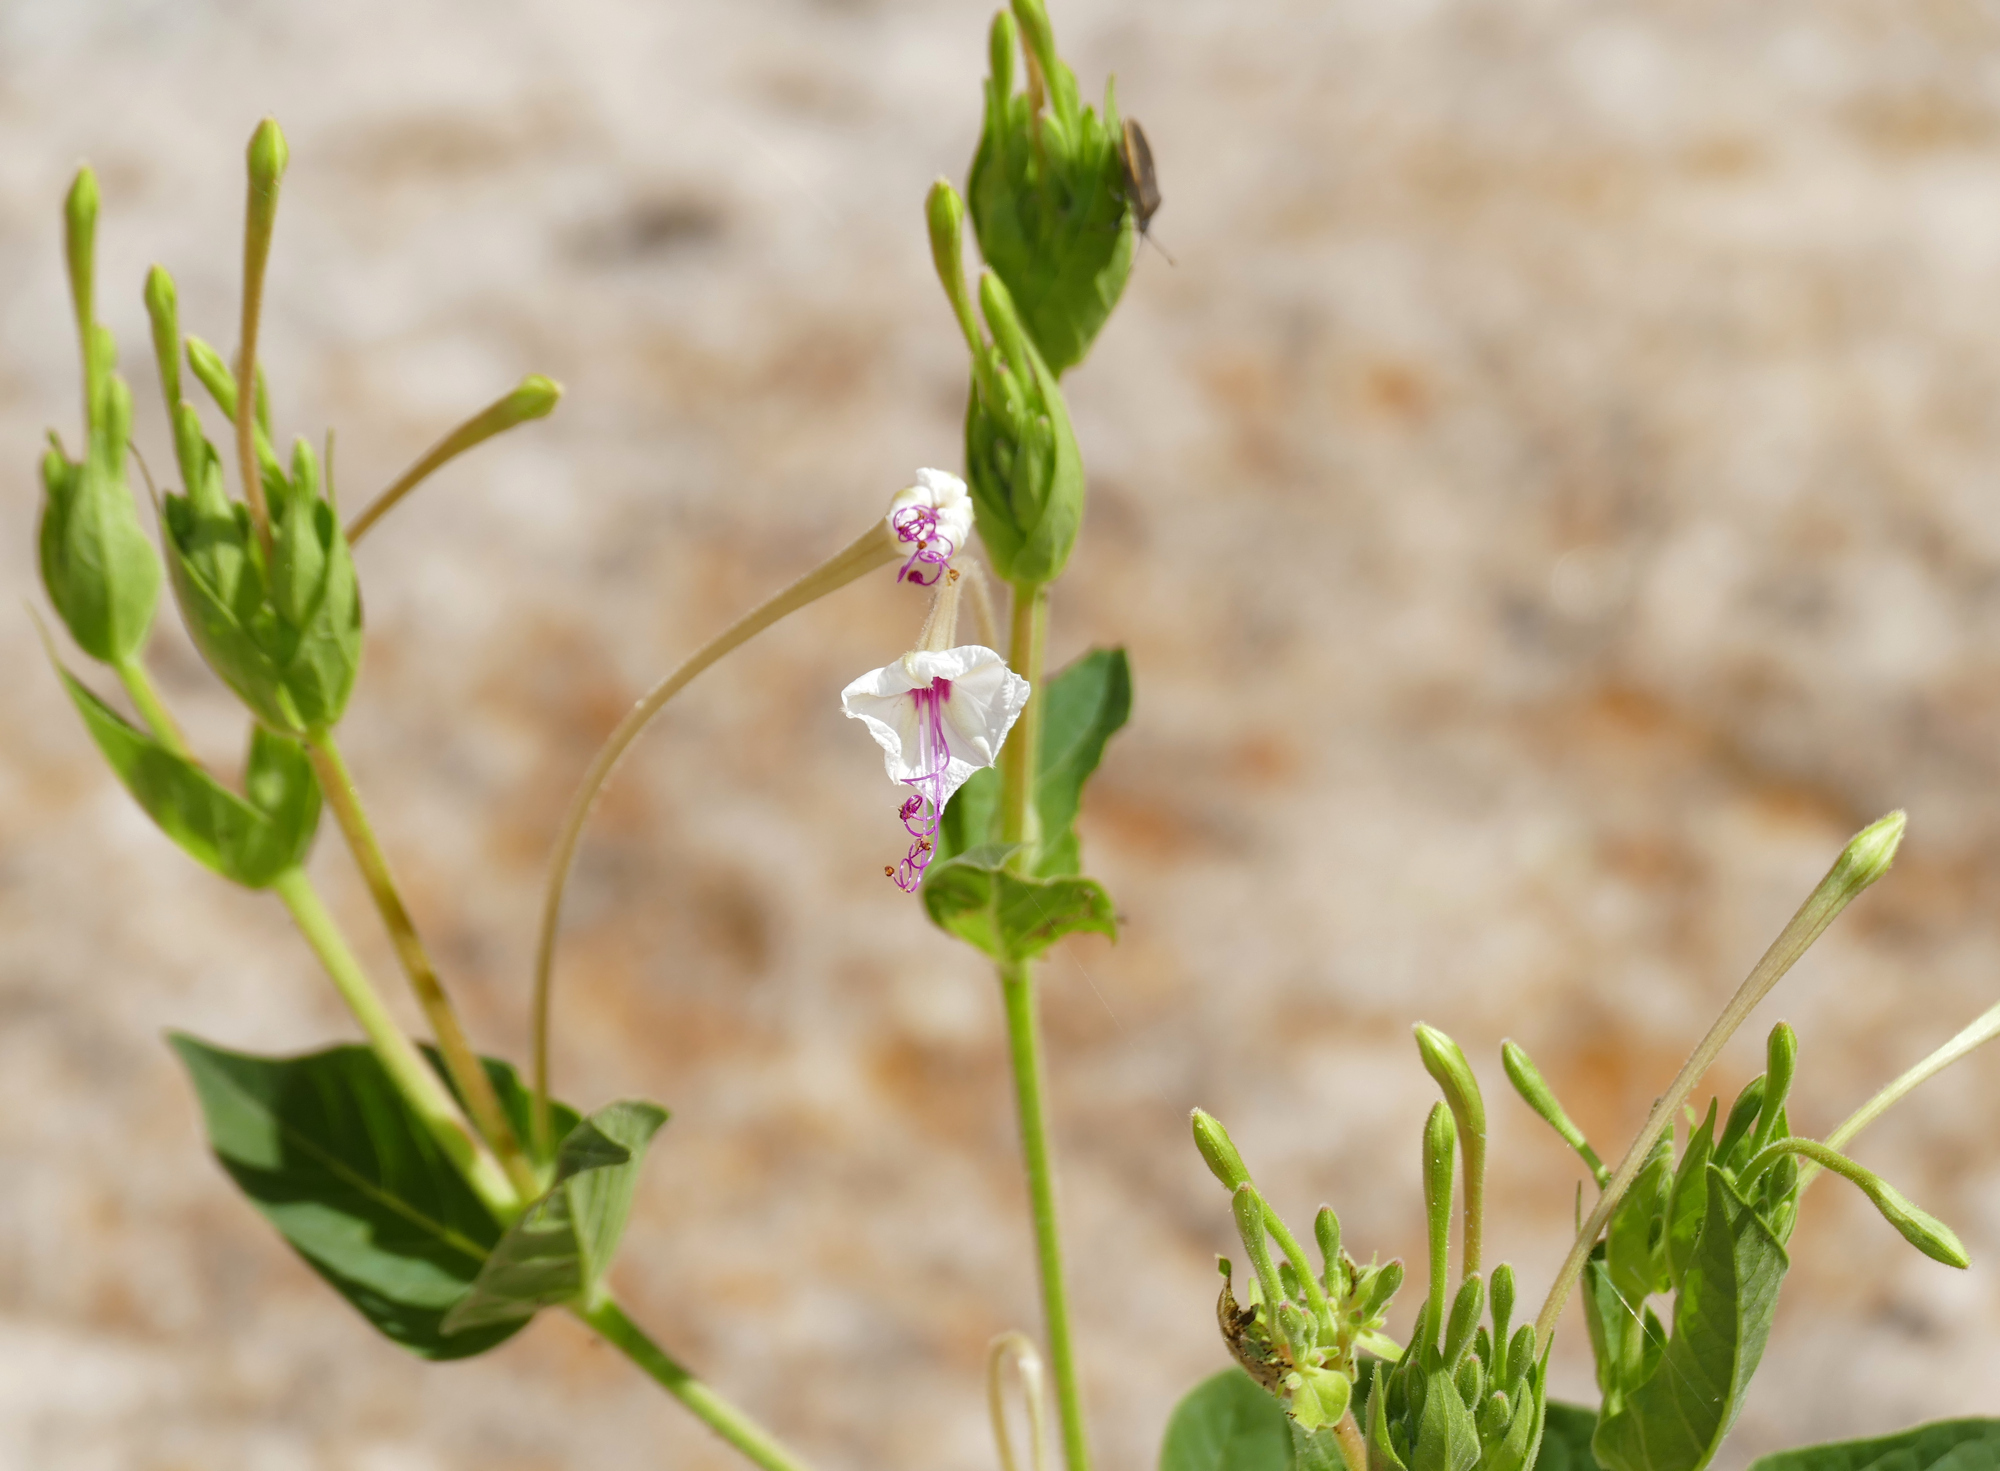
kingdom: Plantae
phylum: Tracheophyta
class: Magnoliopsida
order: Caryophyllales
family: Nyctaginaceae
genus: Mirabilis
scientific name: Mirabilis longiflora
